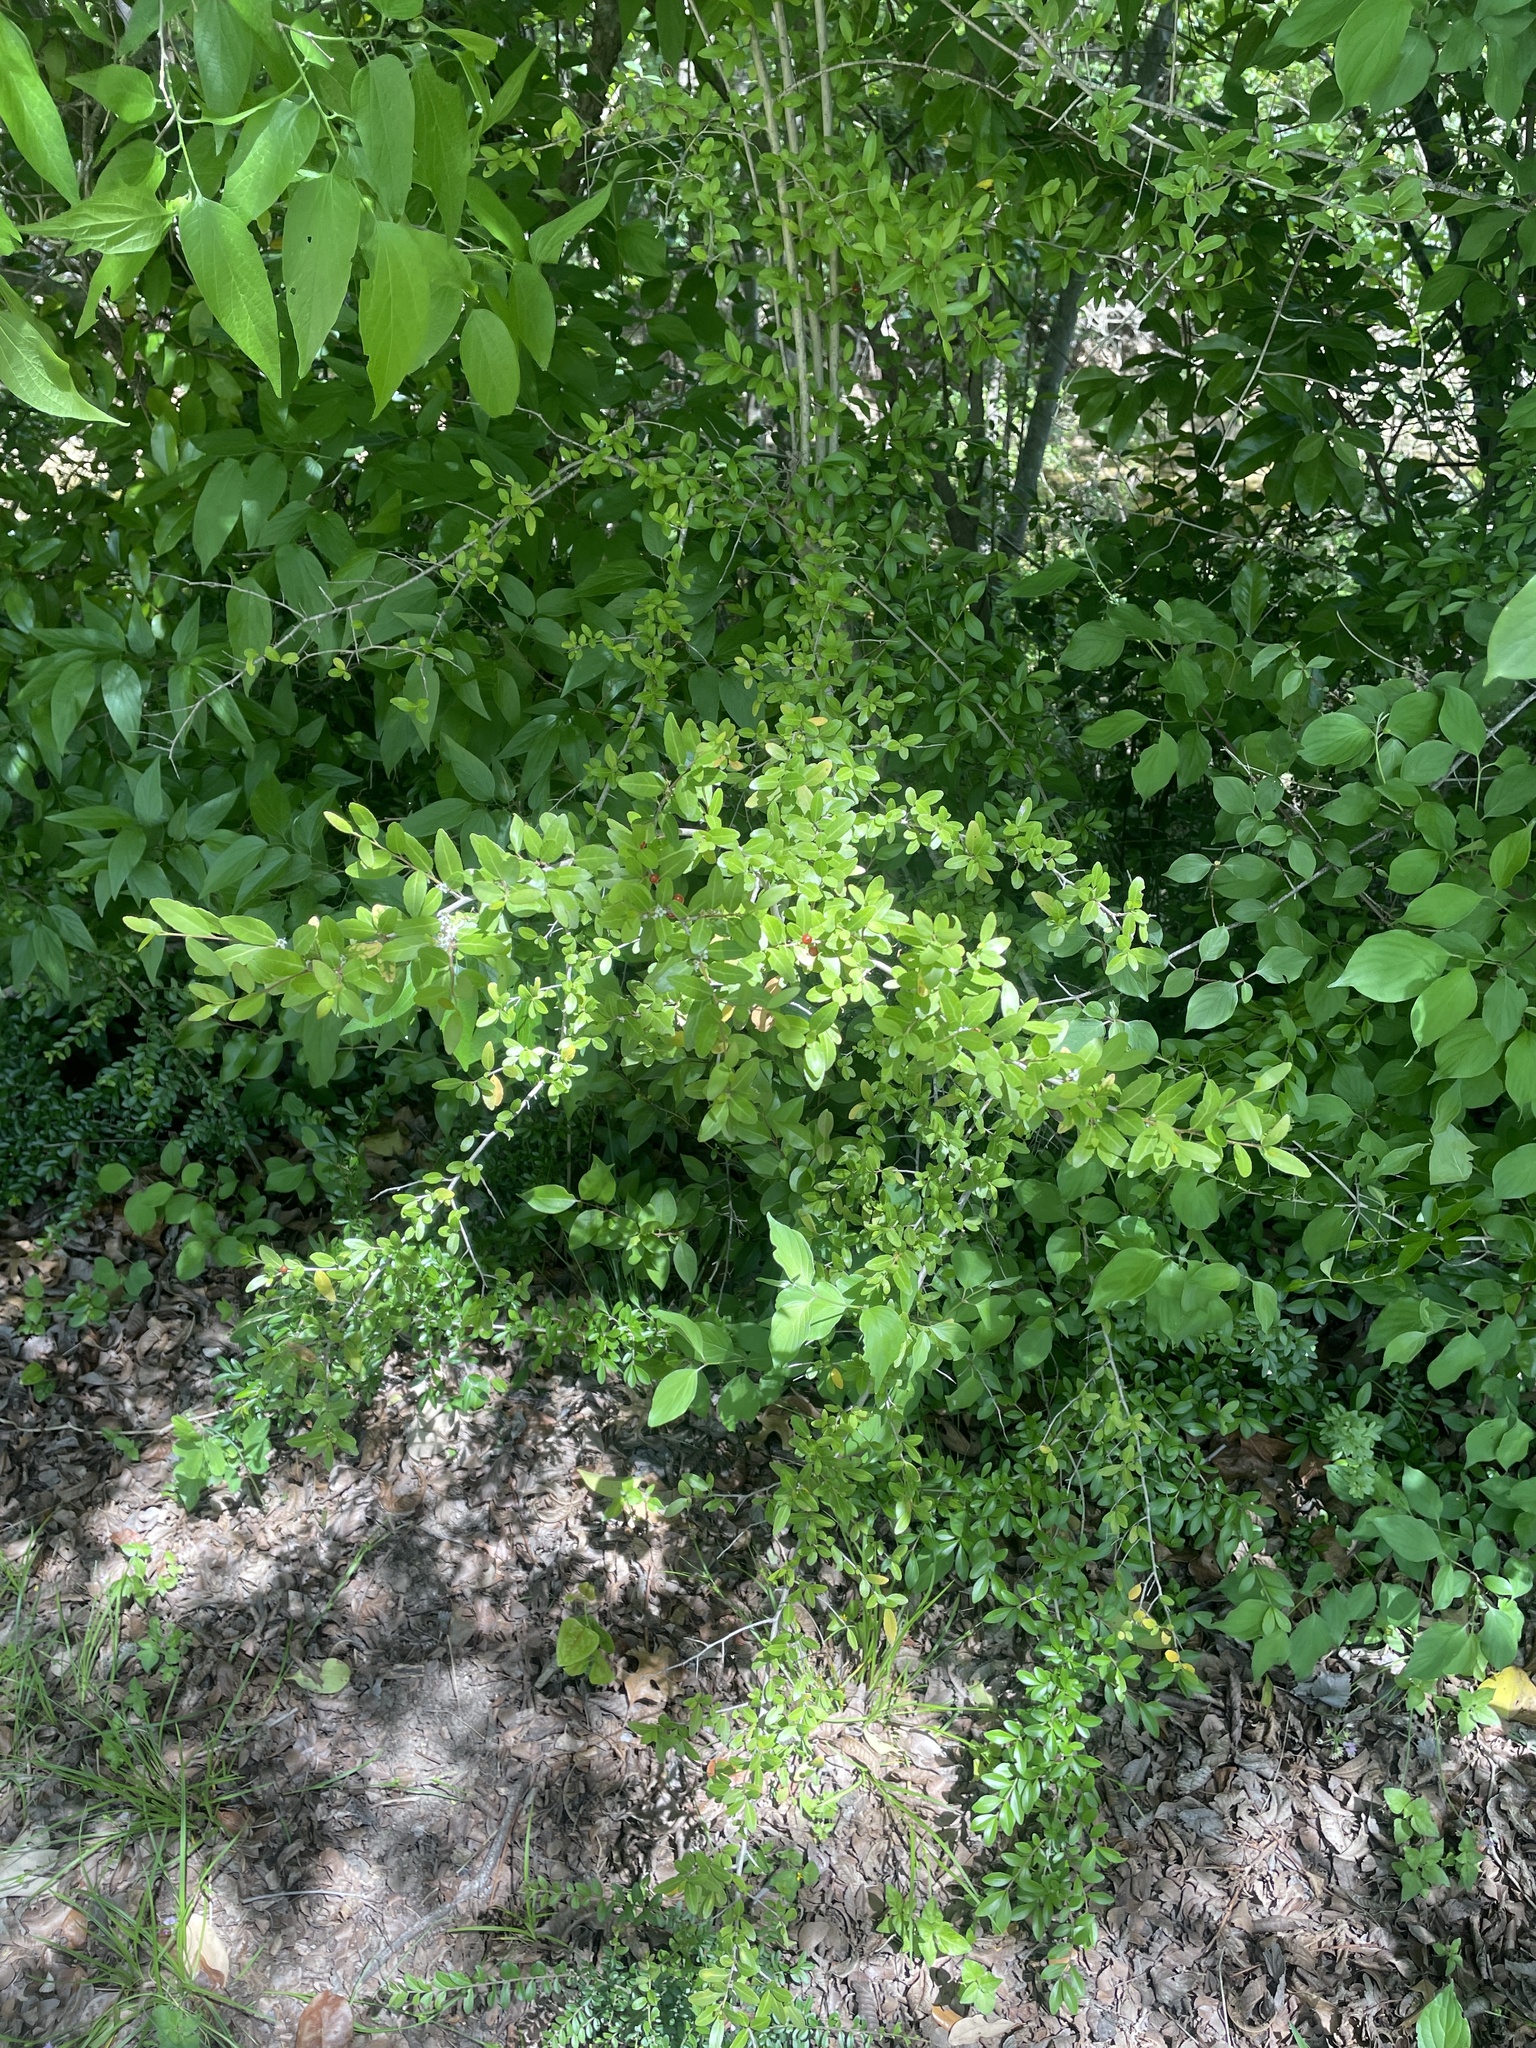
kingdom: Plantae
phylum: Tracheophyta
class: Magnoliopsida
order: Aquifoliales
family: Aquifoliaceae
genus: Ilex
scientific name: Ilex vomitoria
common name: Yaupon holly
